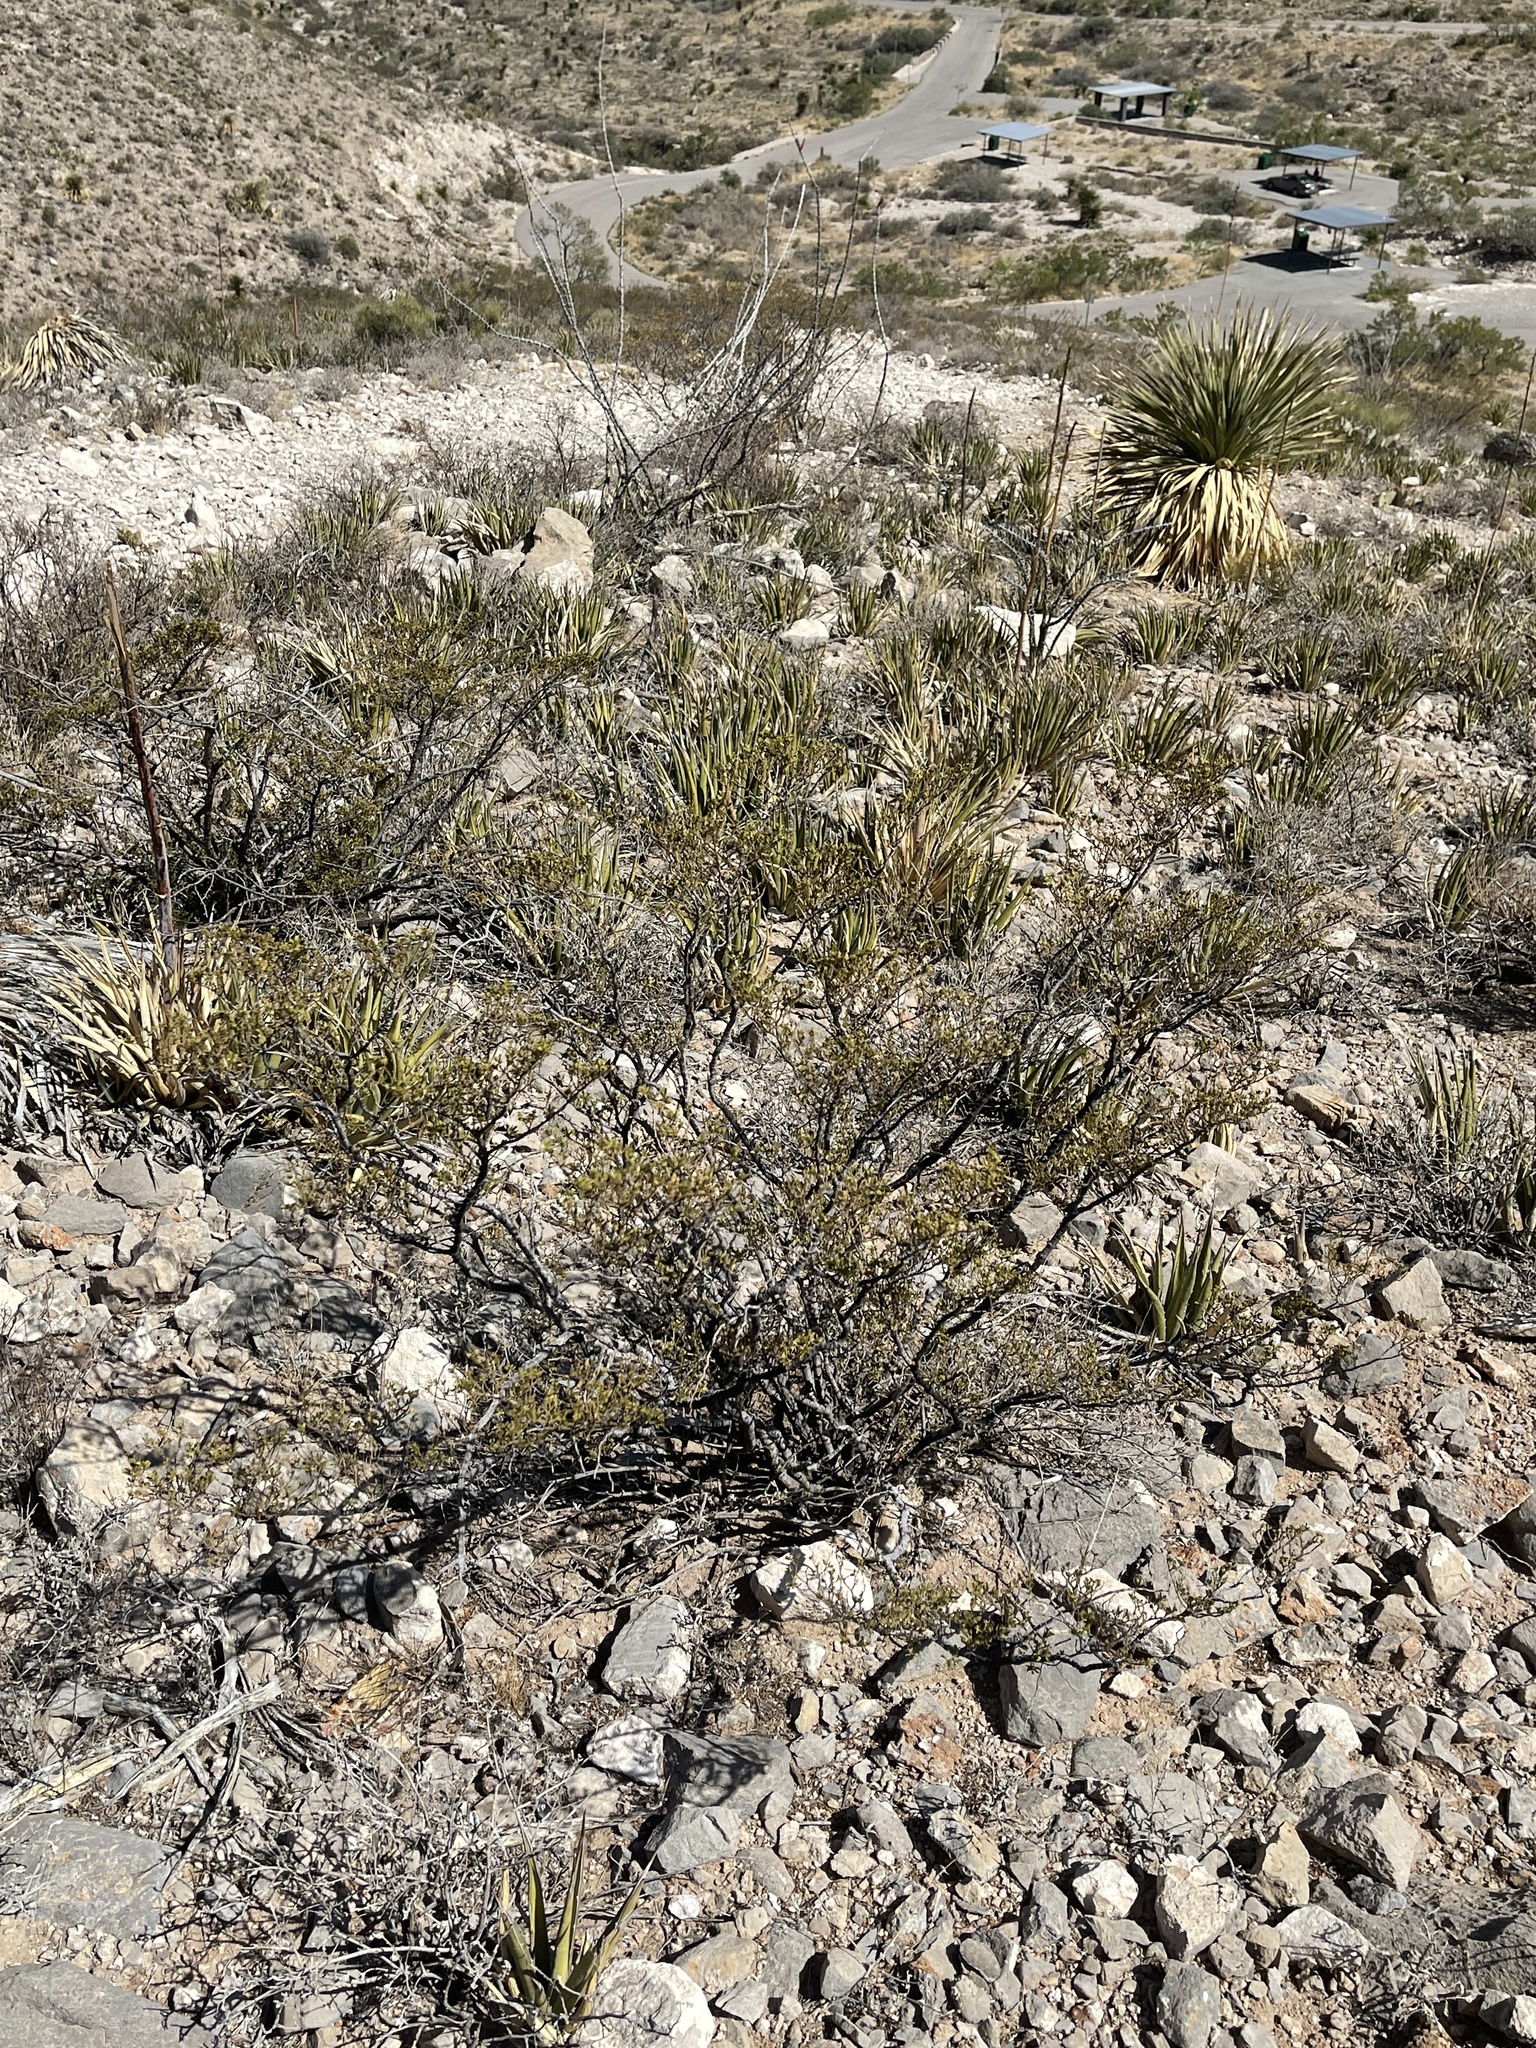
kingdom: Plantae
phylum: Tracheophyta
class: Magnoliopsida
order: Zygophyllales
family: Zygophyllaceae
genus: Larrea
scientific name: Larrea tridentata
